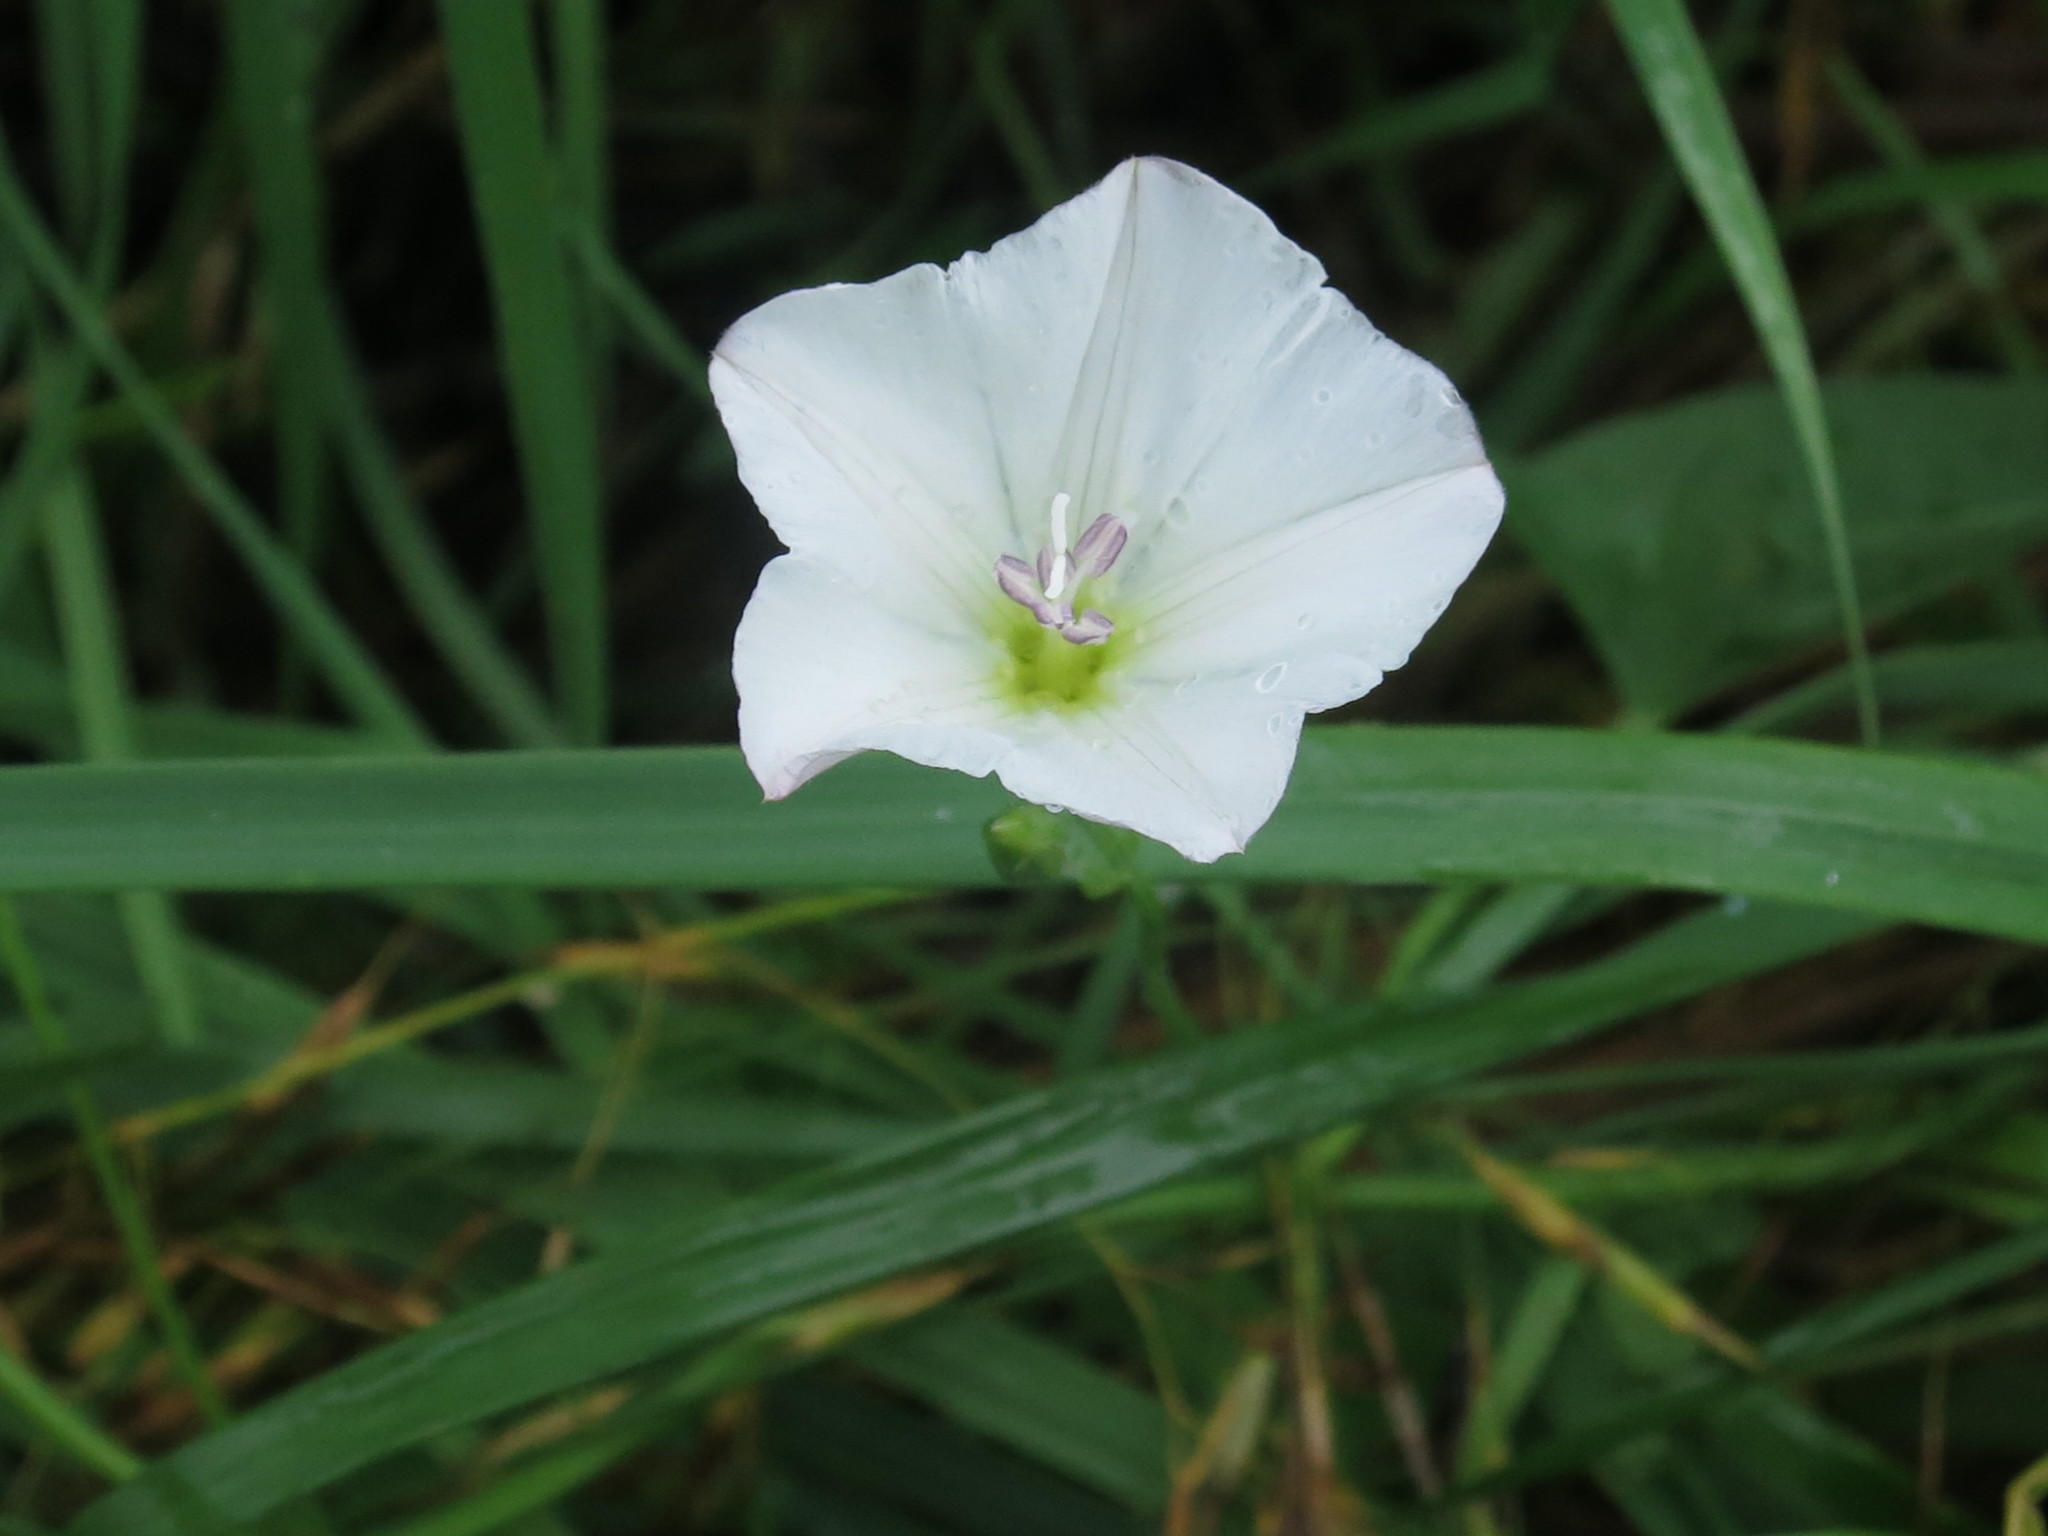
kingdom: Plantae
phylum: Tracheophyta
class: Magnoliopsida
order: Solanales
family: Convolvulaceae
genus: Convolvulus
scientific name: Convolvulus arvensis
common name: Field bindweed
